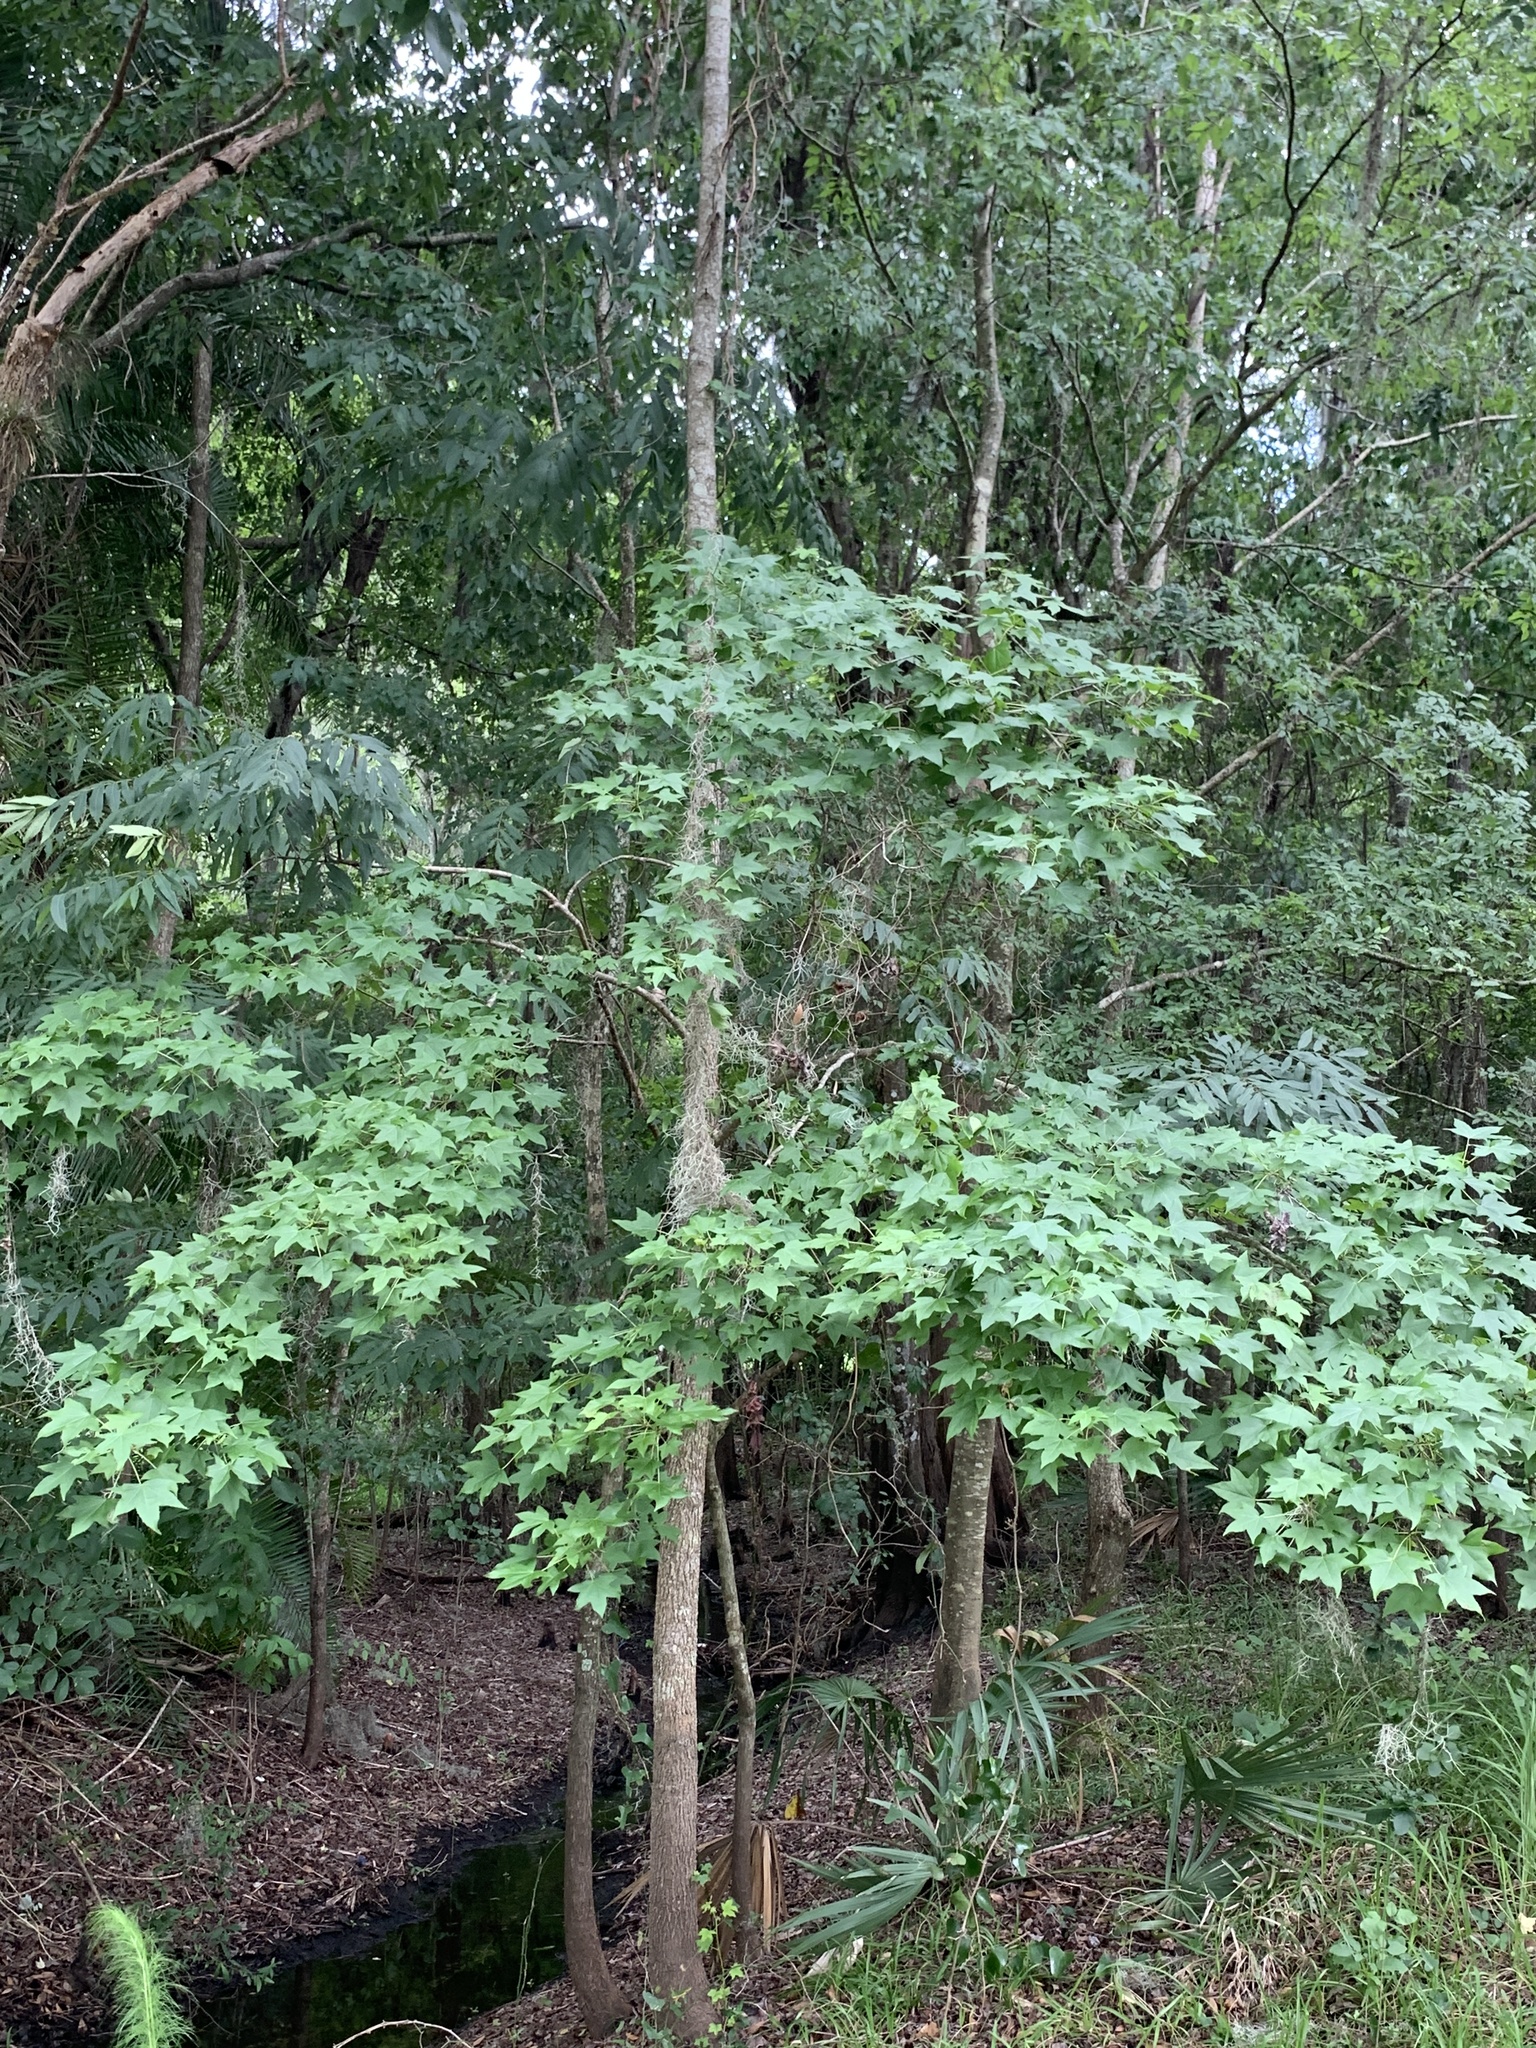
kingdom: Plantae
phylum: Tracheophyta
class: Magnoliopsida
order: Saxifragales
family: Altingiaceae
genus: Liquidambar
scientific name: Liquidambar styraciflua
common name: Sweet gum
